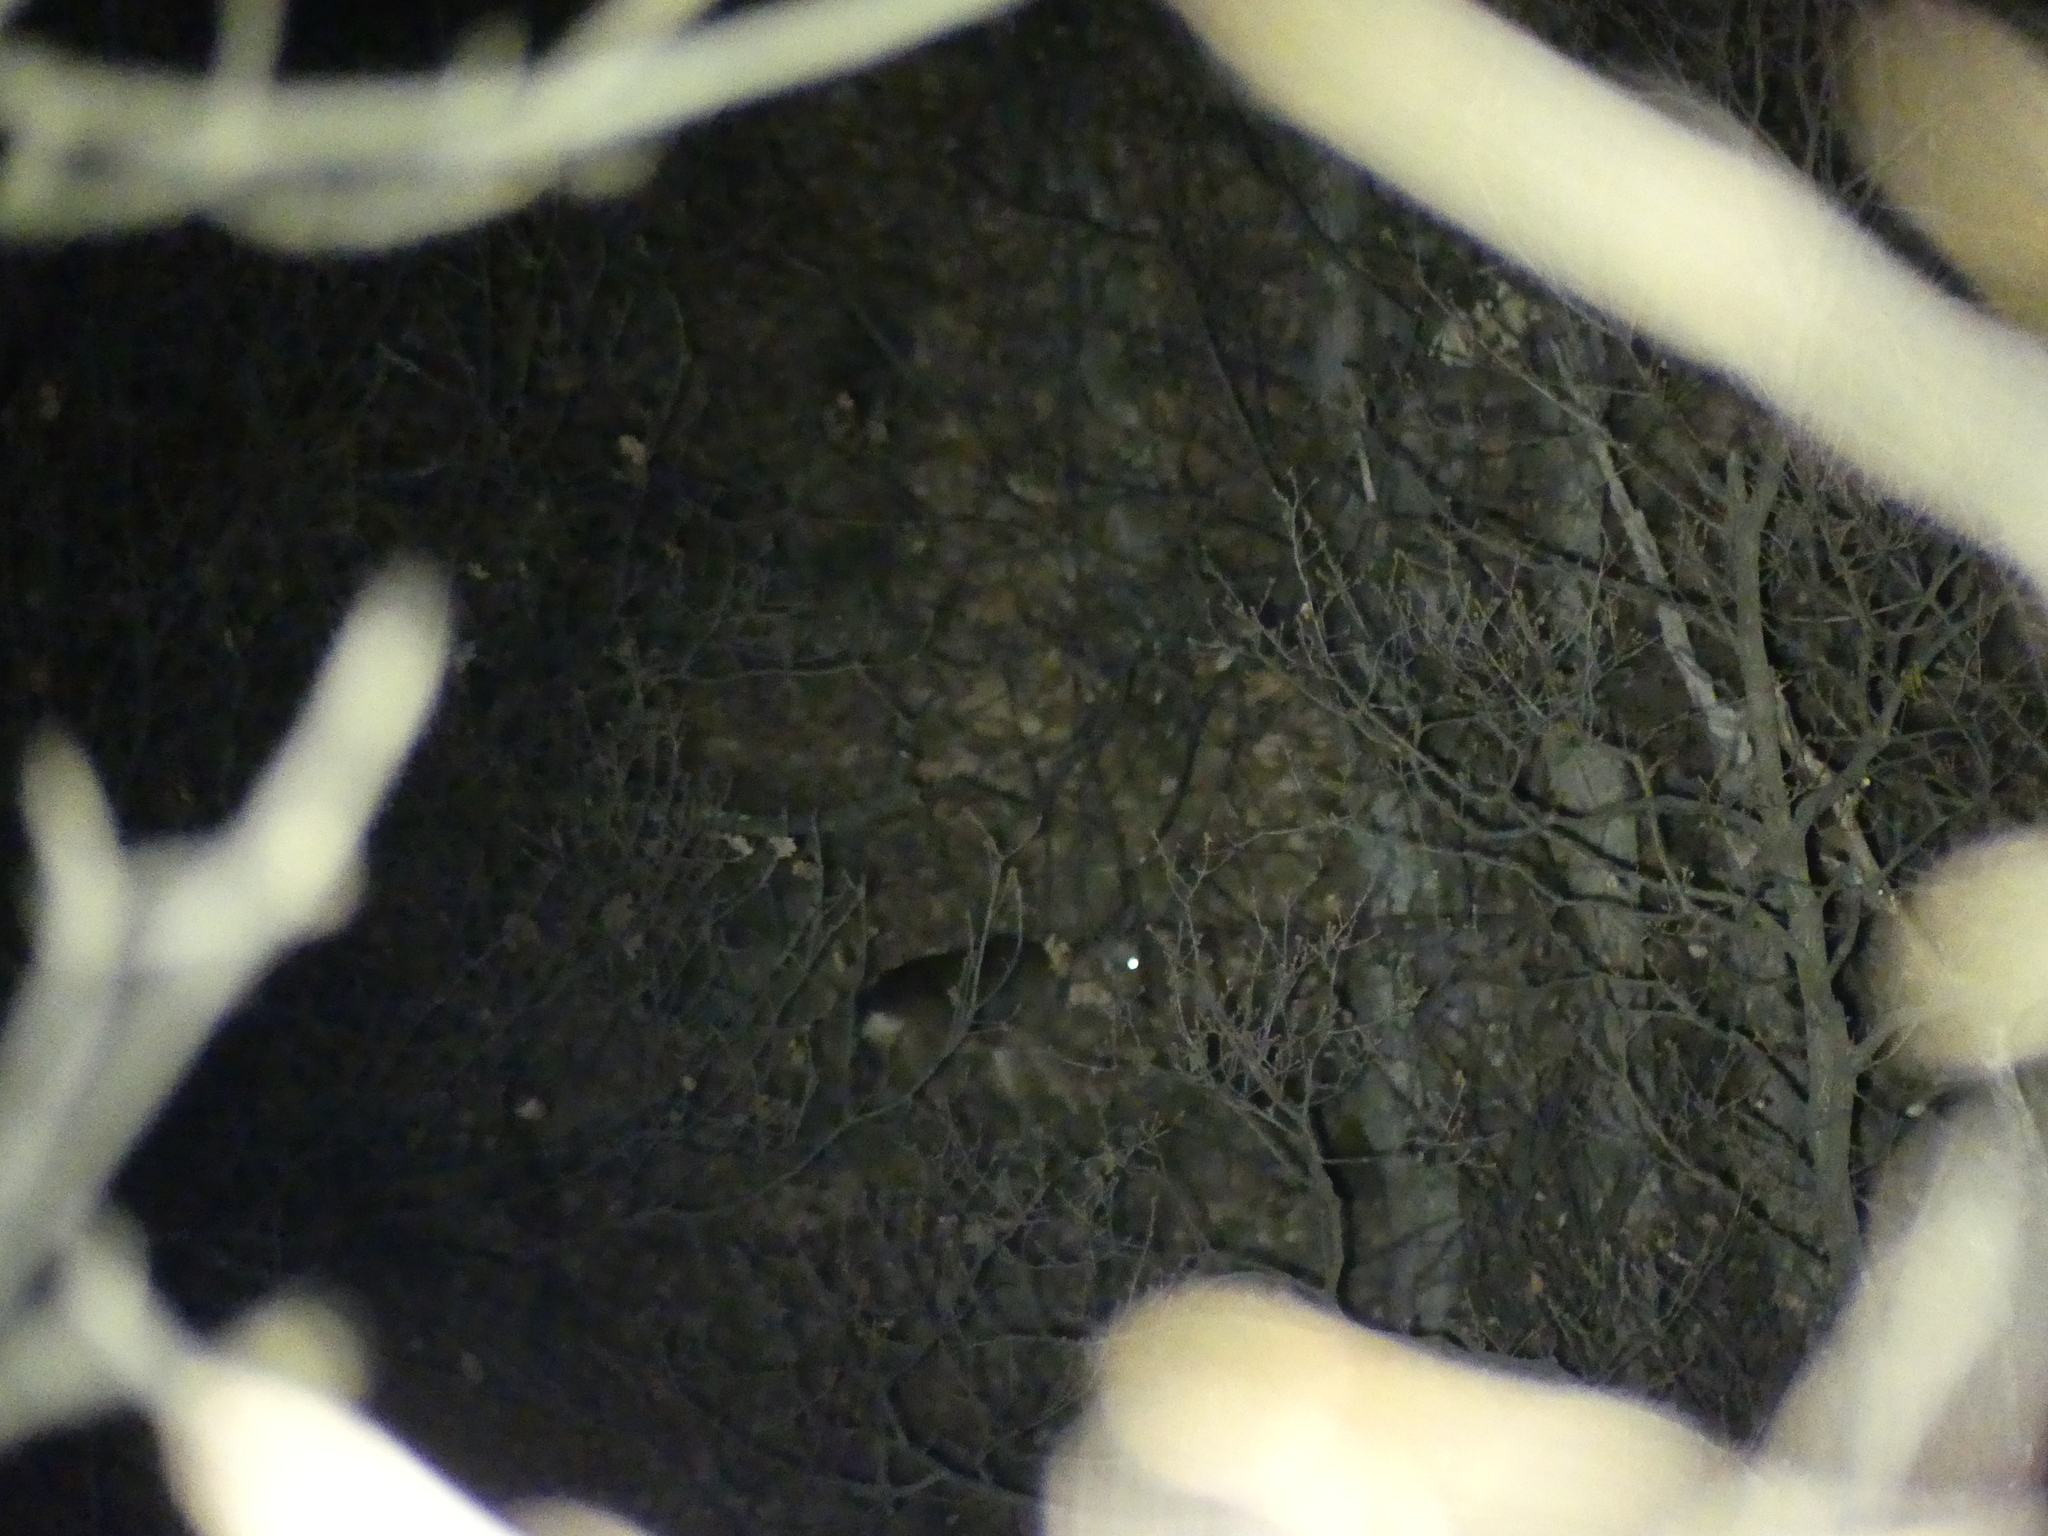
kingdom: Animalia
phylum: Chordata
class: Mammalia
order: Artiodactyla
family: Cervidae
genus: Capreolus
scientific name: Capreolus capreolus
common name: Western roe deer
